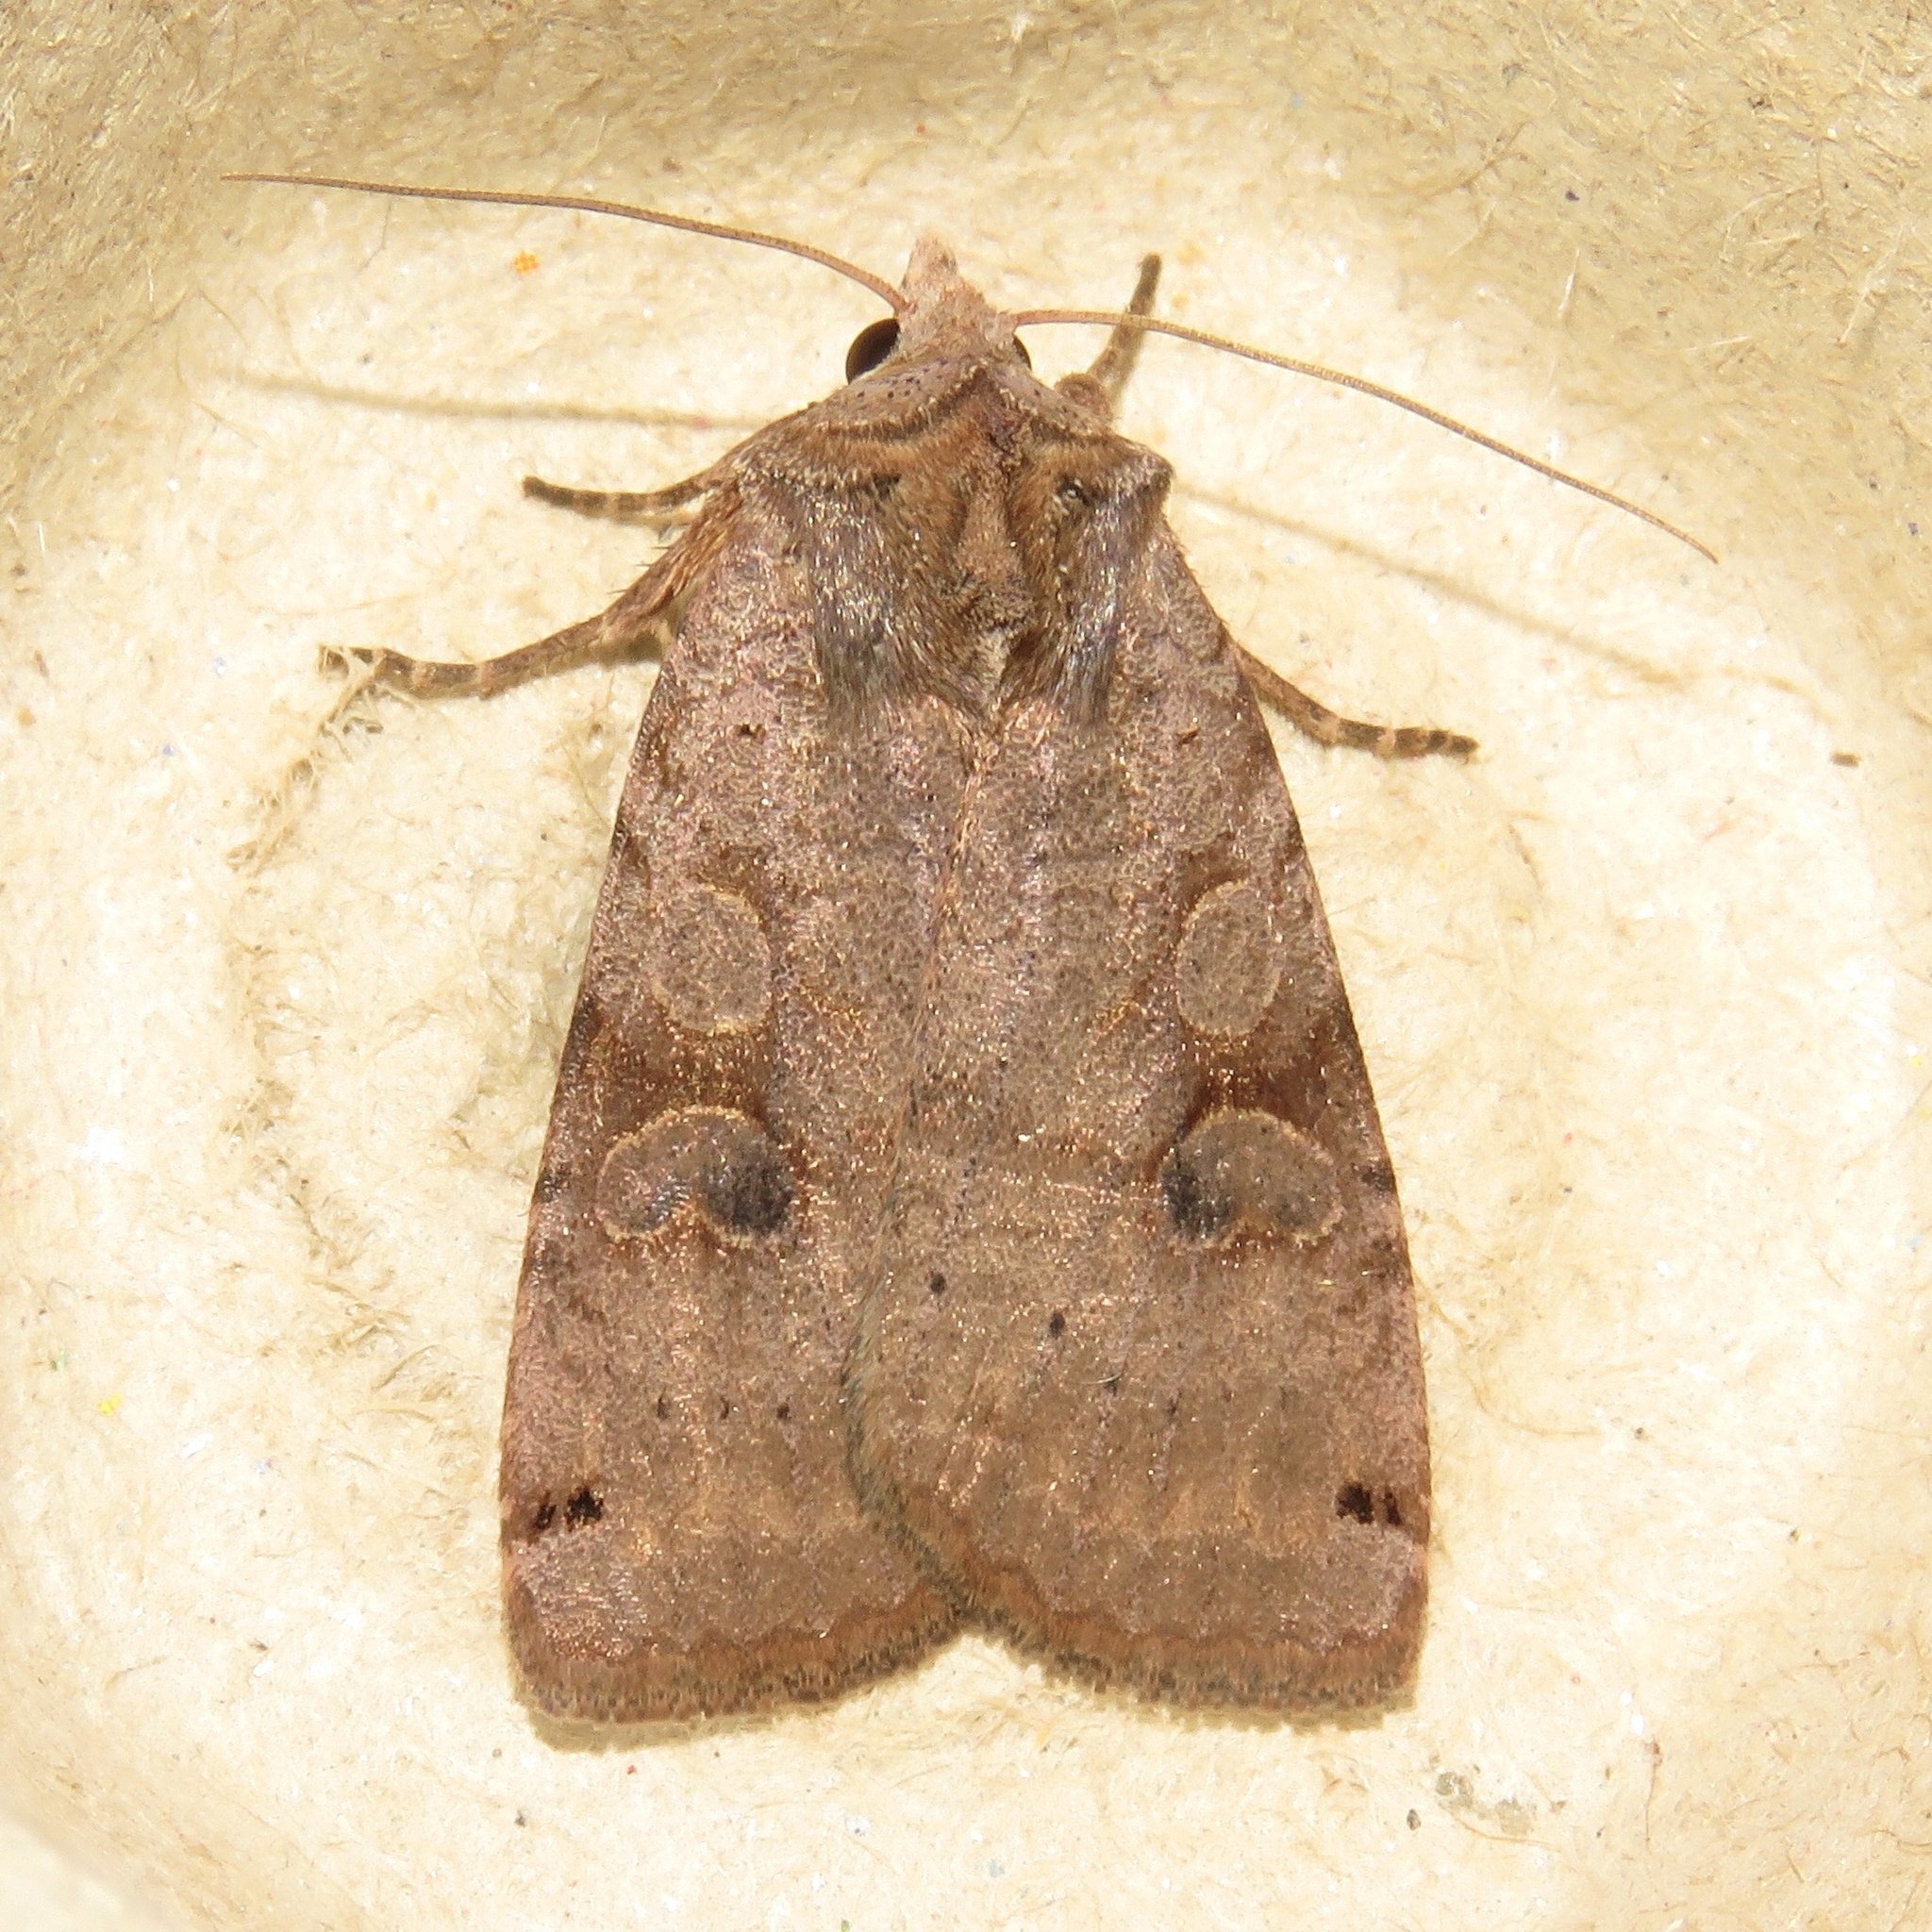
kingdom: Animalia
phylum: Arthropoda
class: Insecta
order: Lepidoptera
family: Noctuidae
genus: Xestia
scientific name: Xestia smithii
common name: Smith's dart
